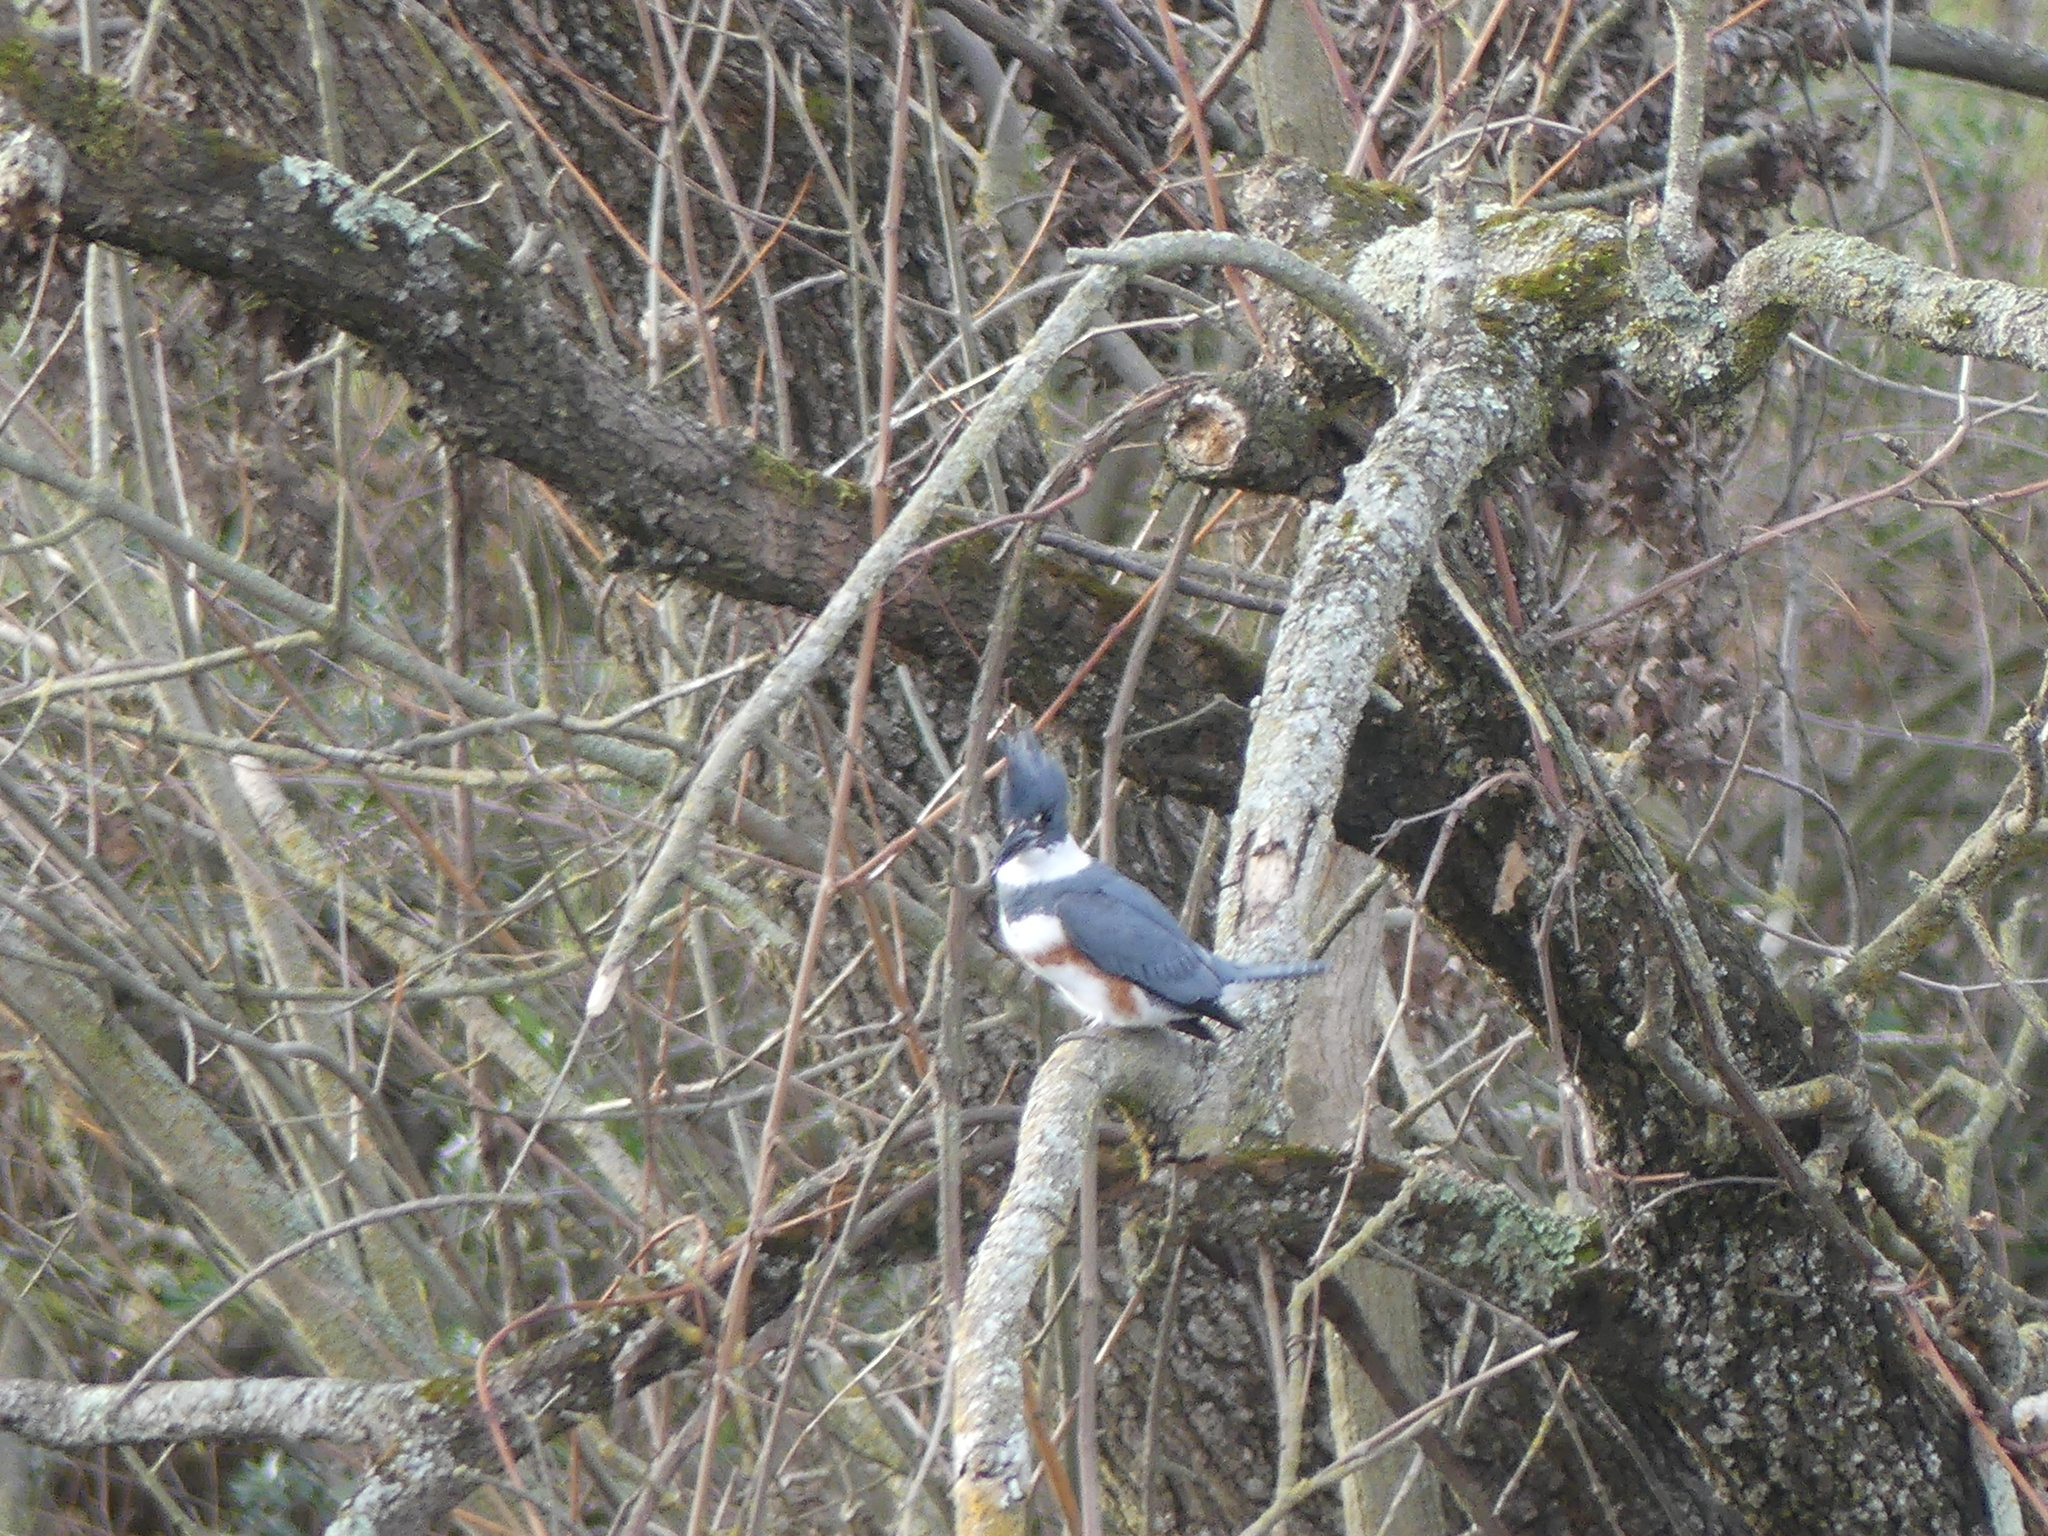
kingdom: Animalia
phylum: Chordata
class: Aves
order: Coraciiformes
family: Alcedinidae
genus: Megaceryle
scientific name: Megaceryle alcyon
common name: Belted kingfisher
